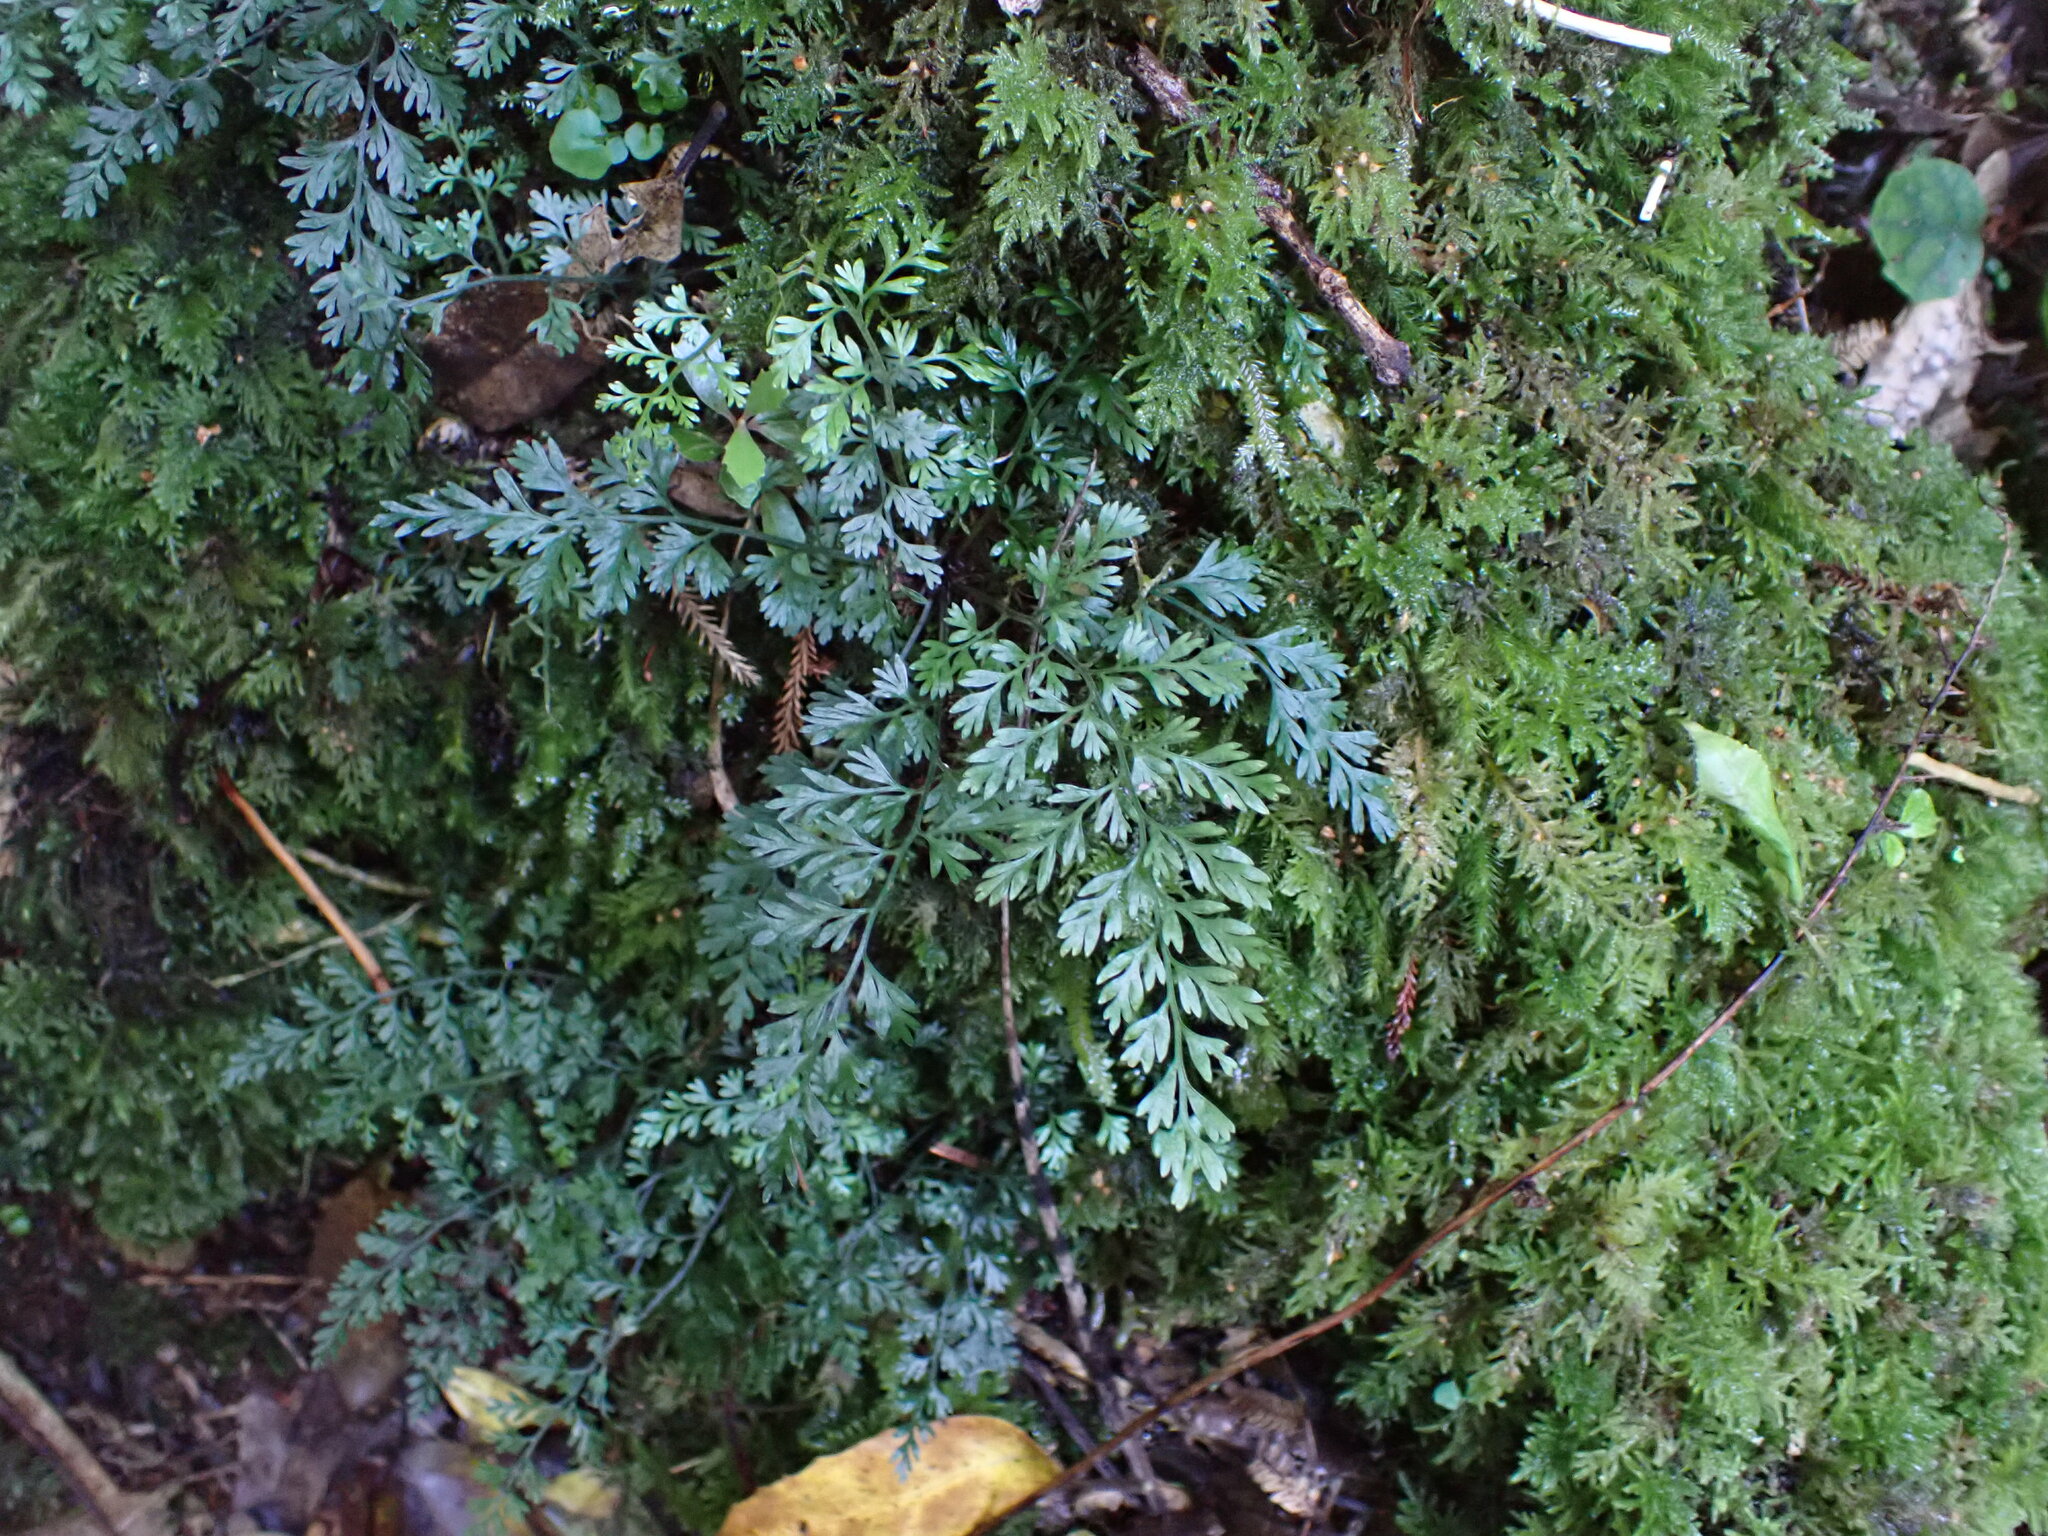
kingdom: Plantae
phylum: Tracheophyta
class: Polypodiopsida
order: Polypodiales
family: Aspleniaceae
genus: Asplenium
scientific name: Asplenium hookerianum
